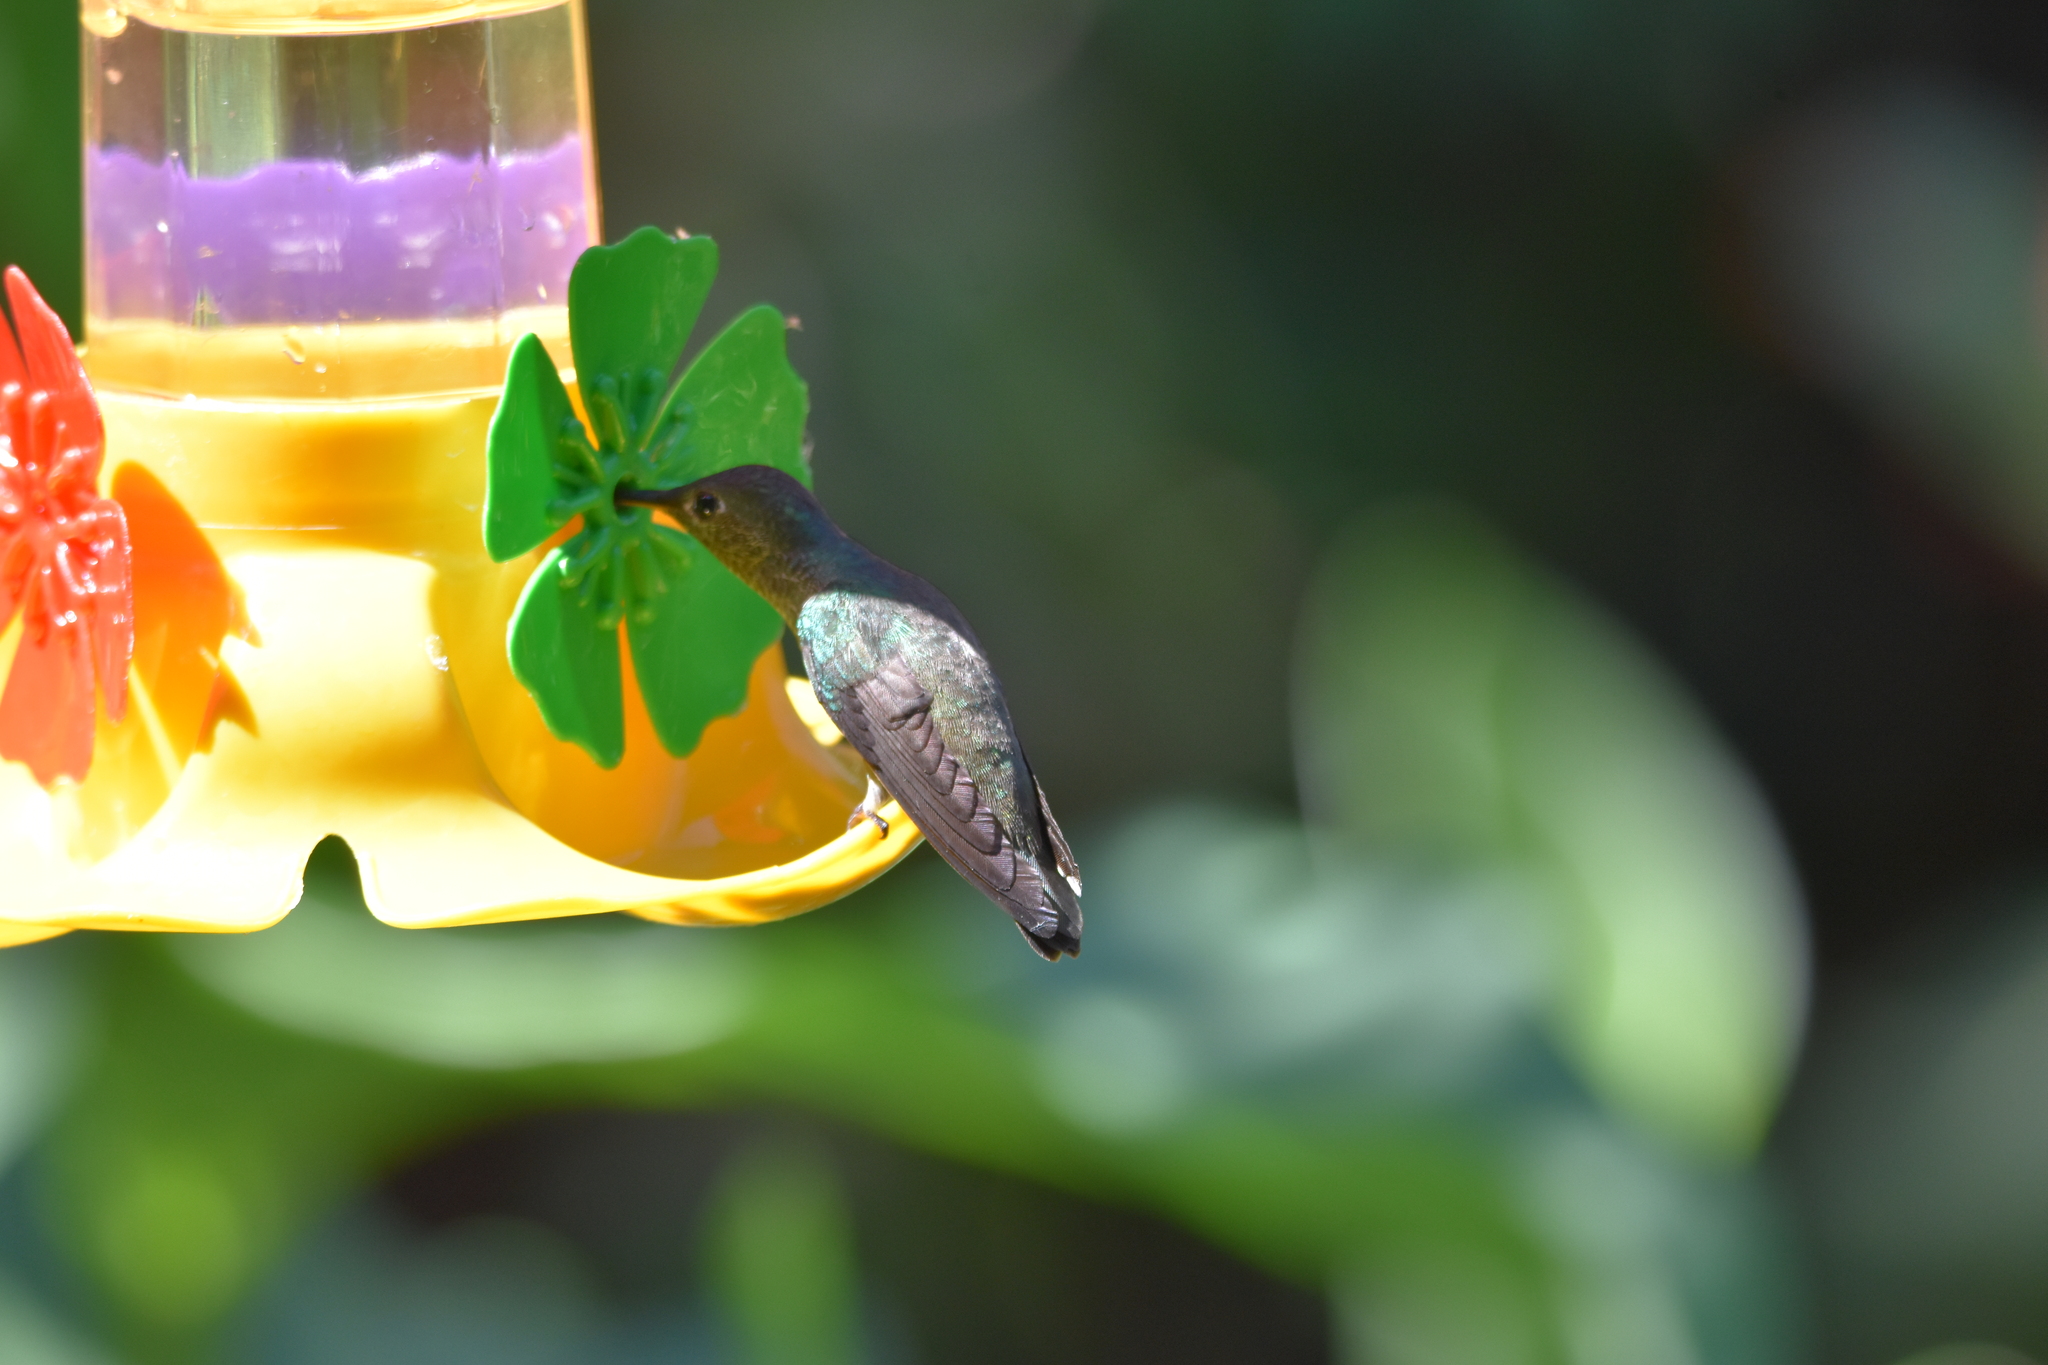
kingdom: Animalia
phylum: Chordata
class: Aves
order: Apodiformes
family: Trochilidae
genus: Hylocharis
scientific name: Hylocharis chrysura
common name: Gilded sapphire
